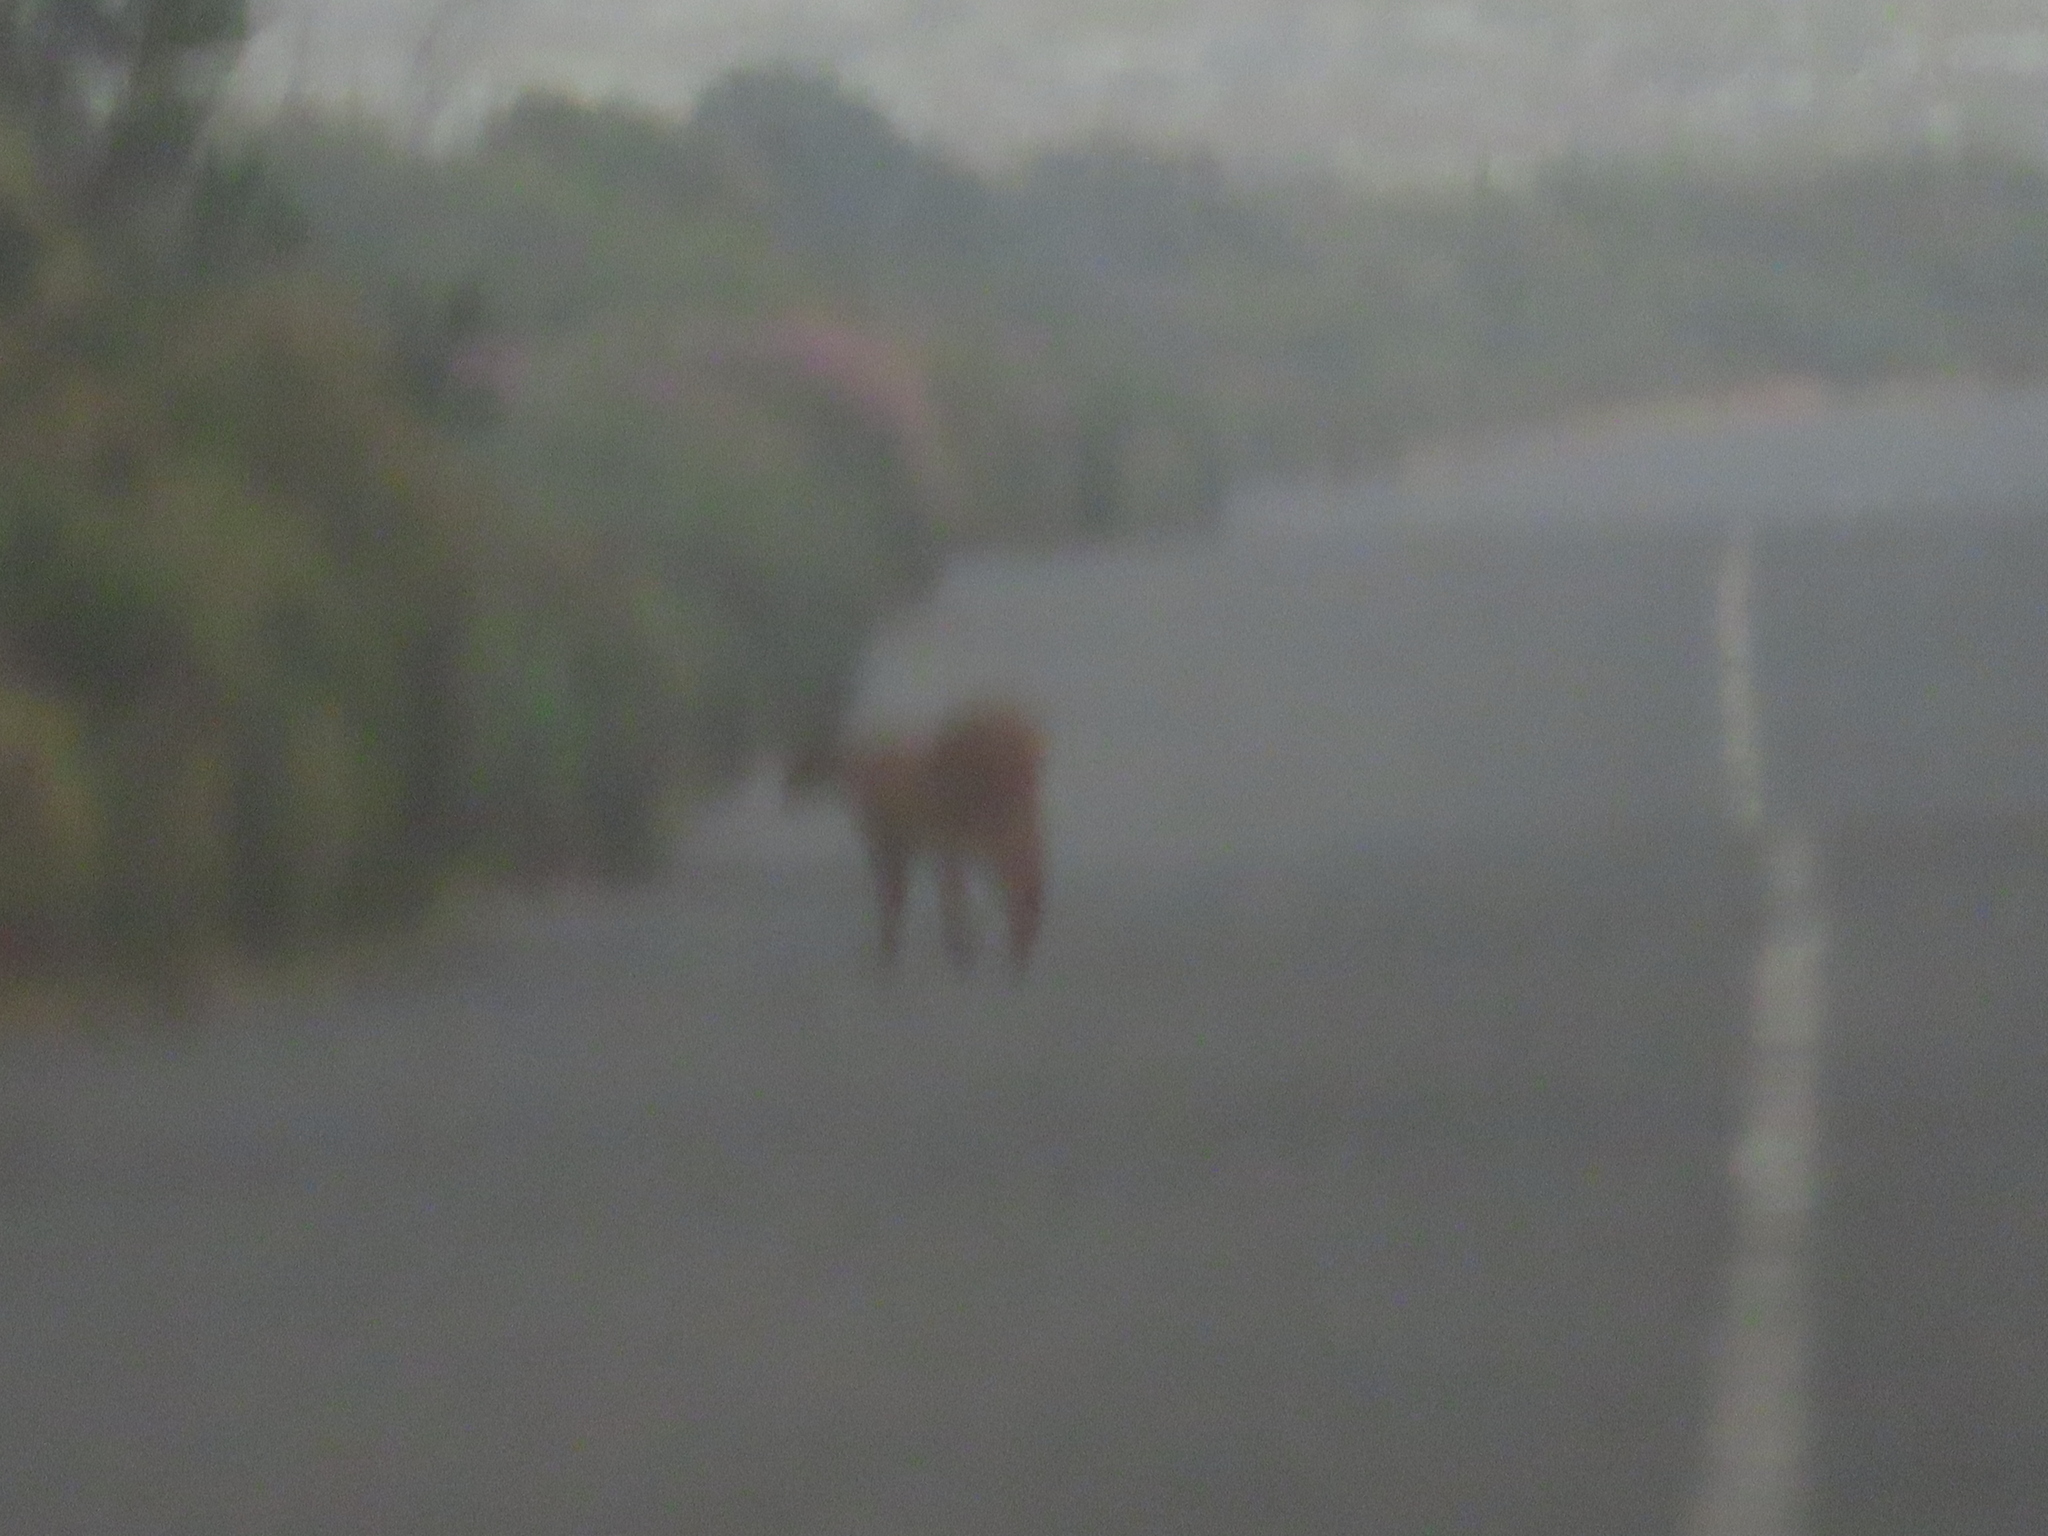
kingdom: Animalia
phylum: Chordata
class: Mammalia
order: Carnivora
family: Felidae
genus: Caracal
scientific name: Caracal caracal
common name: Caracal
